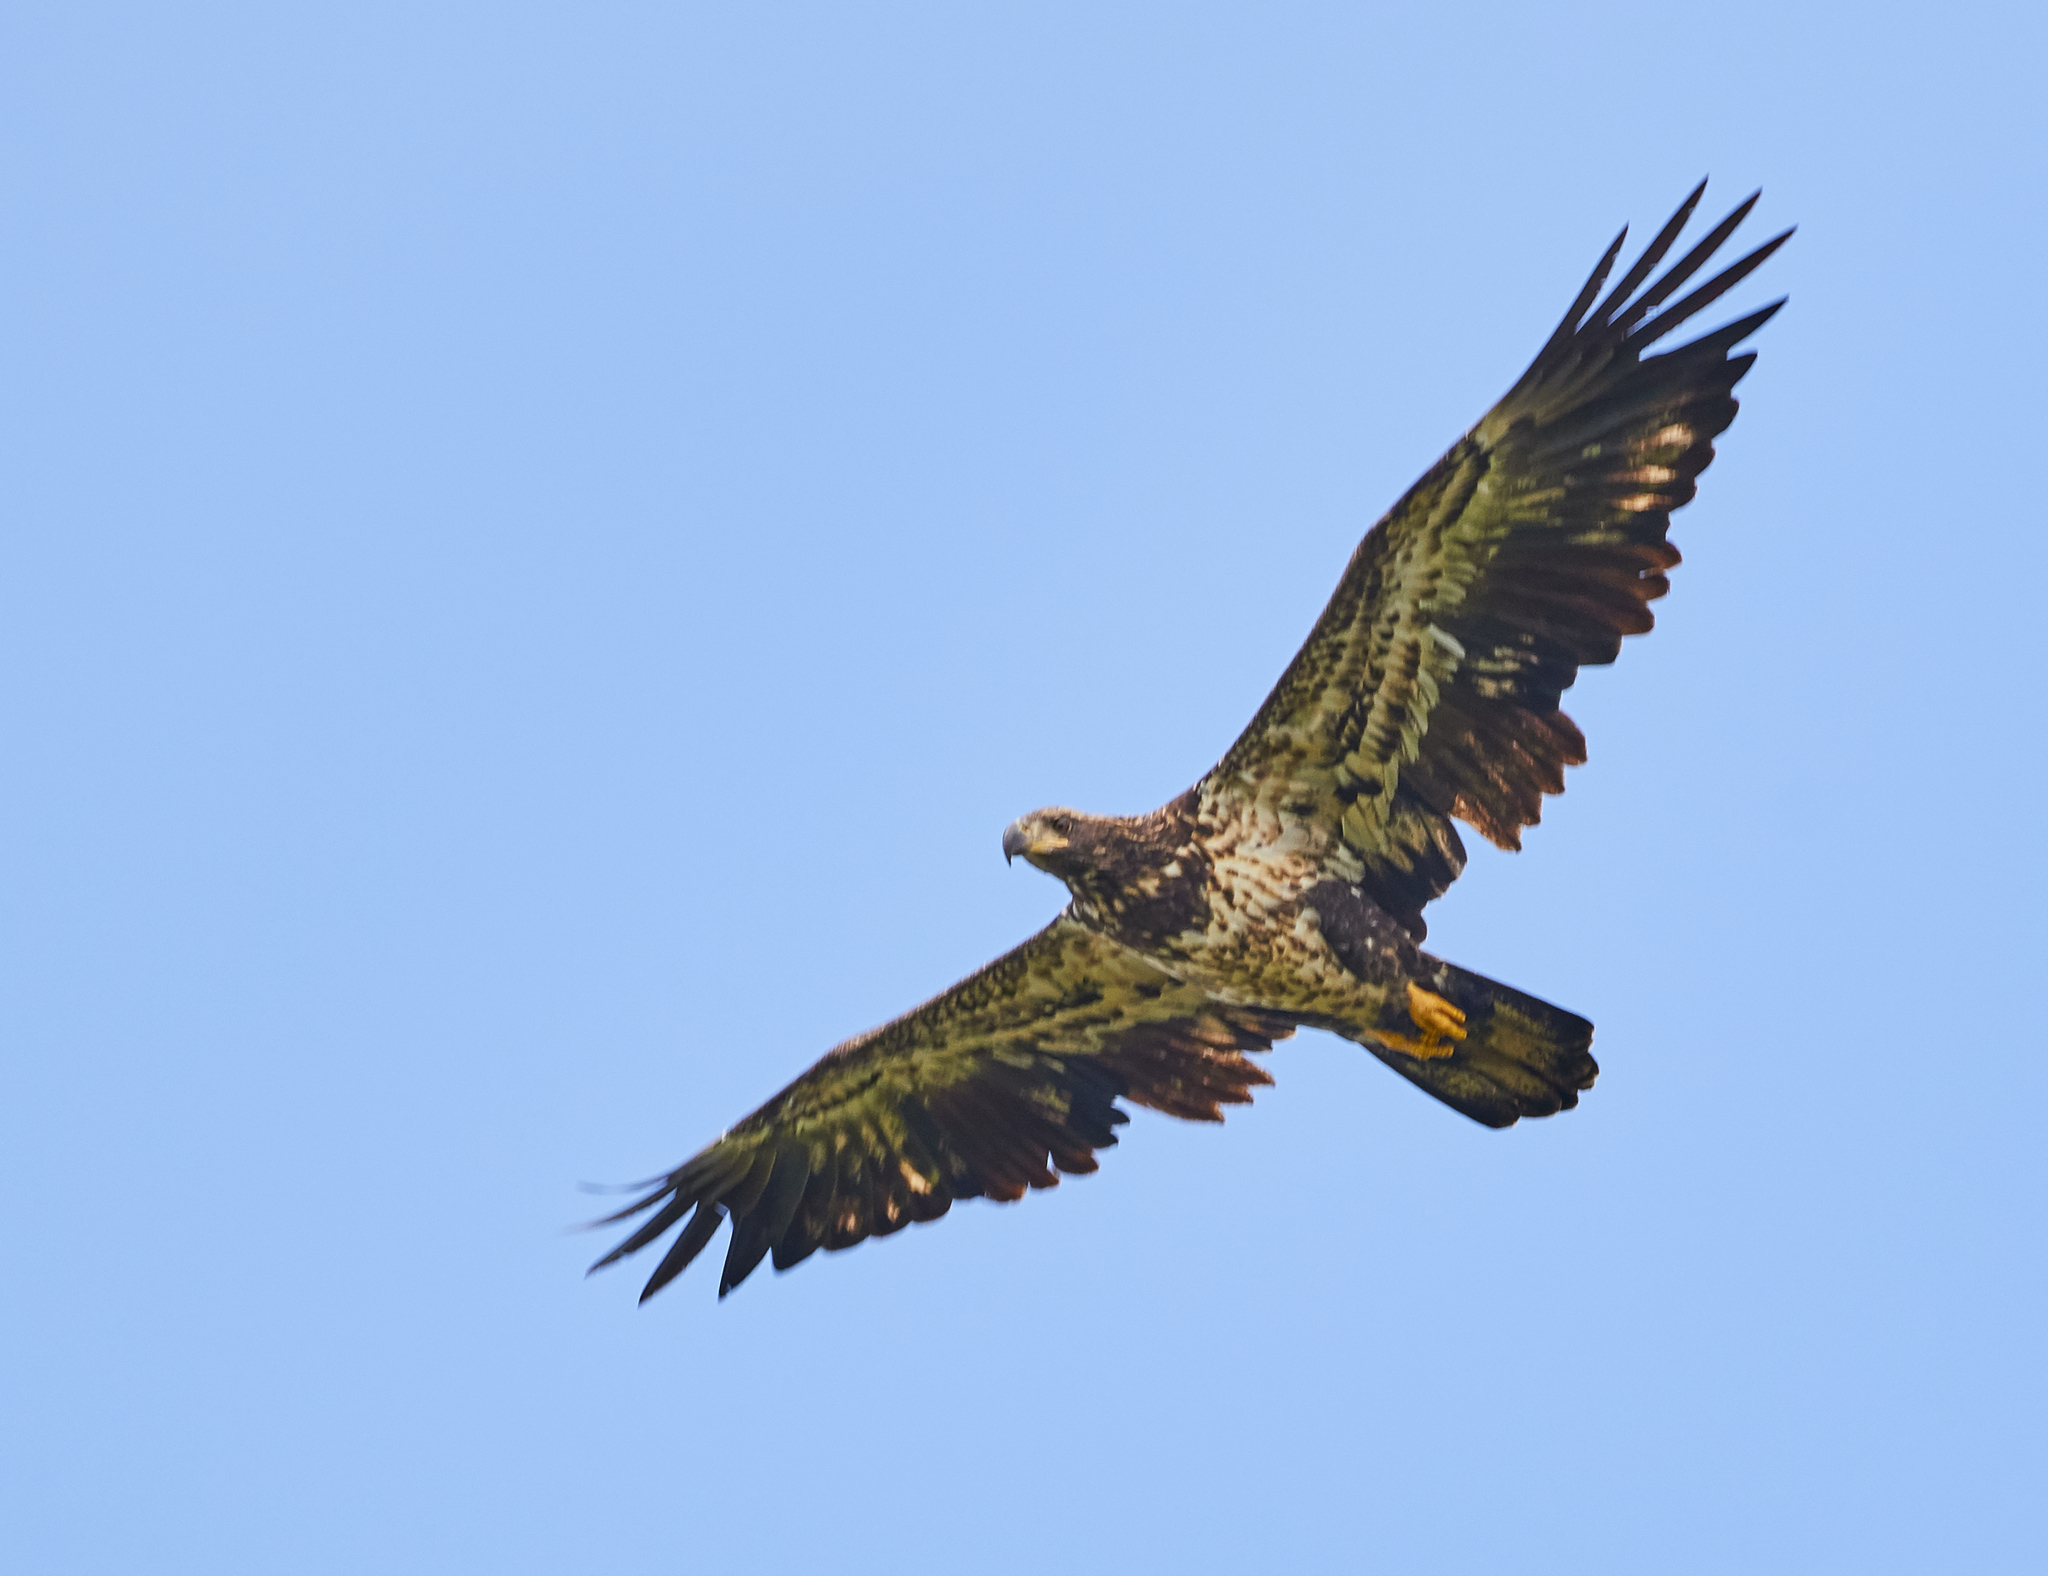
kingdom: Animalia
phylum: Chordata
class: Aves
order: Accipitriformes
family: Accipitridae
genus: Haliaeetus
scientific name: Haliaeetus leucocephalus
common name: Bald eagle
